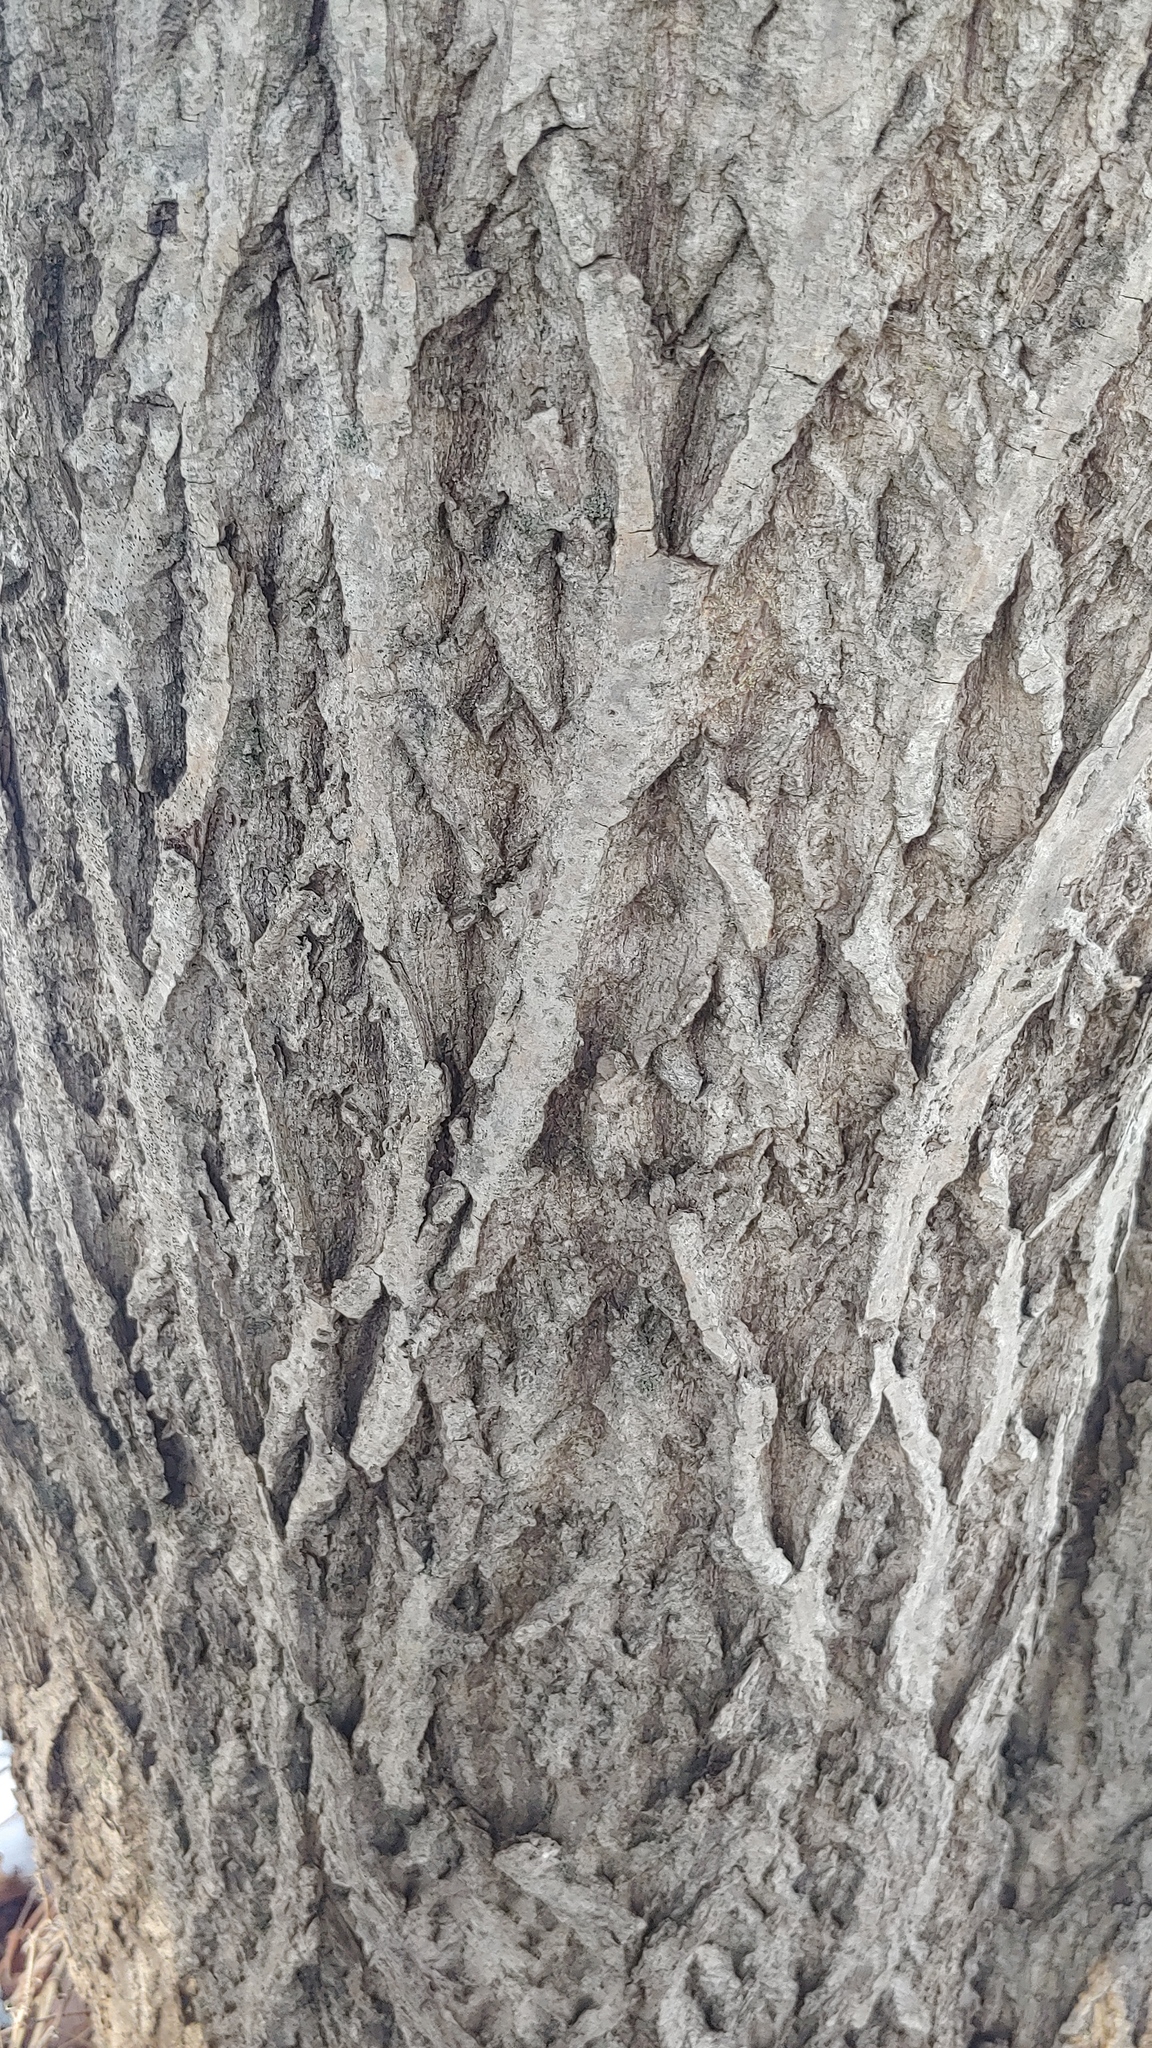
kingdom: Plantae
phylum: Tracheophyta
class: Magnoliopsida
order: Fagales
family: Juglandaceae
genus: Juglans
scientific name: Juglans cinerea
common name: Butternut
